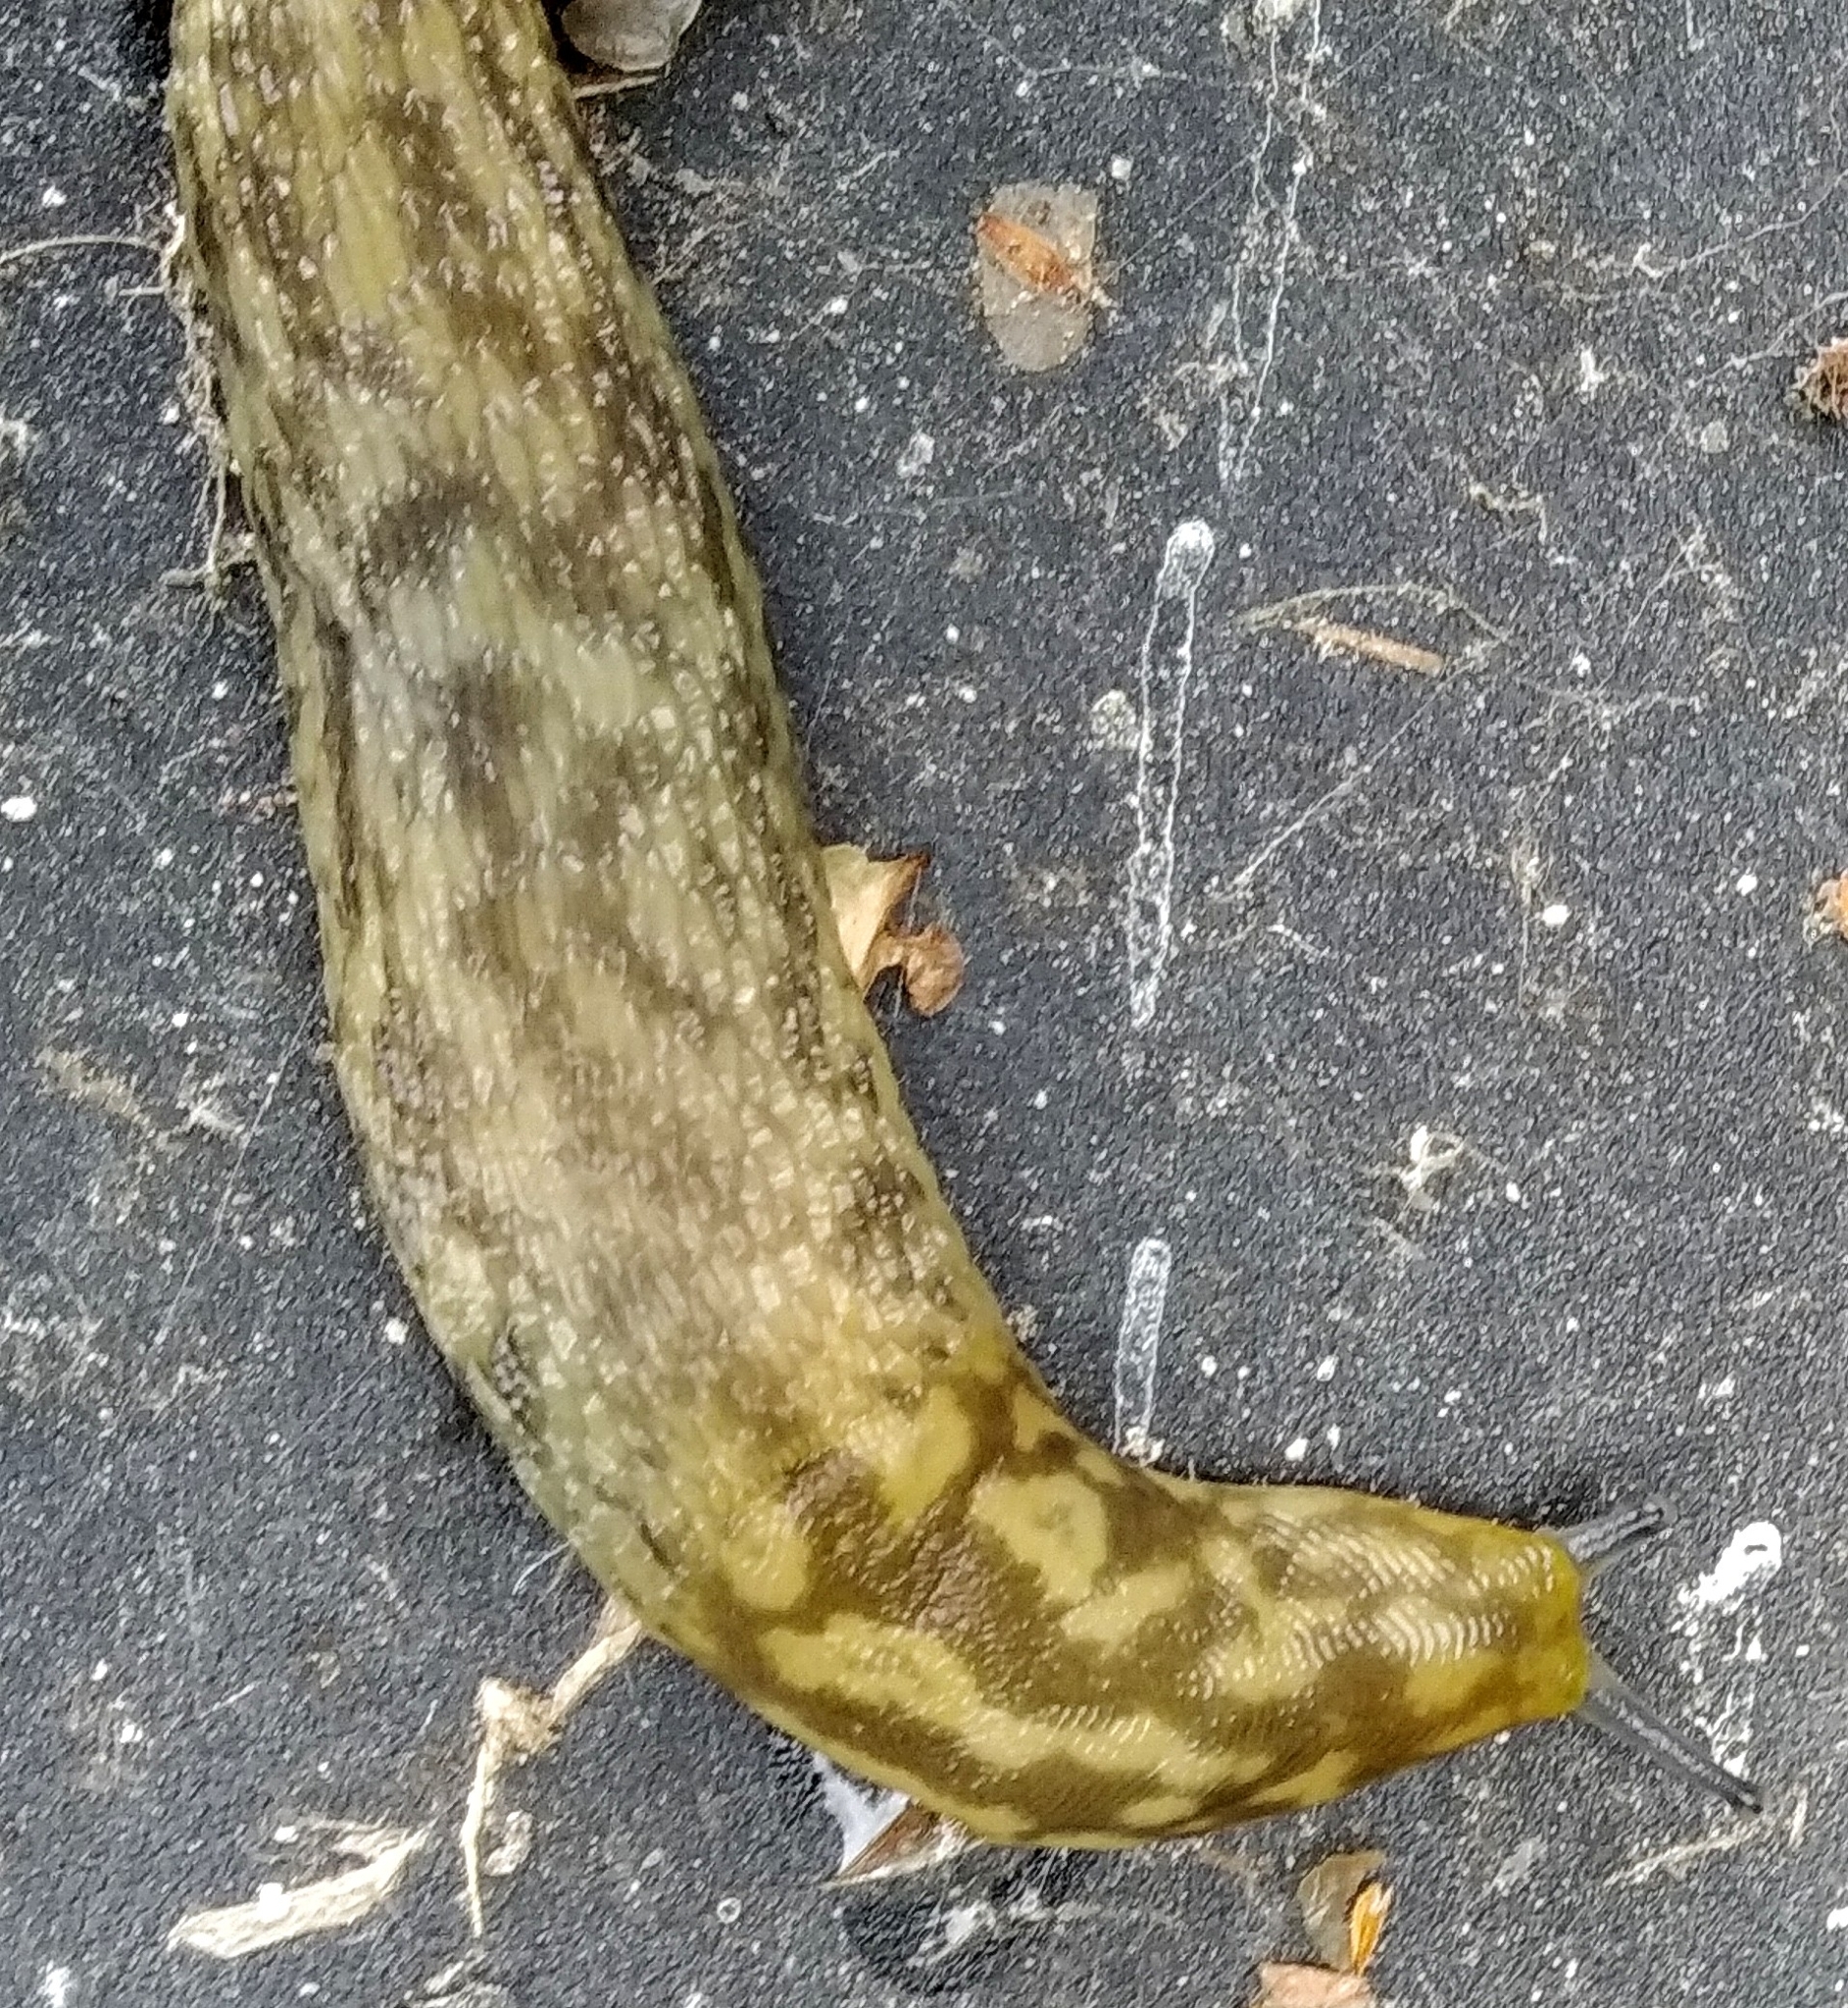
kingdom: Animalia
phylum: Mollusca
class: Gastropoda
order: Stylommatophora
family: Limacidae
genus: Limacus
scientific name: Limacus maculatus
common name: Irish yellow slug
